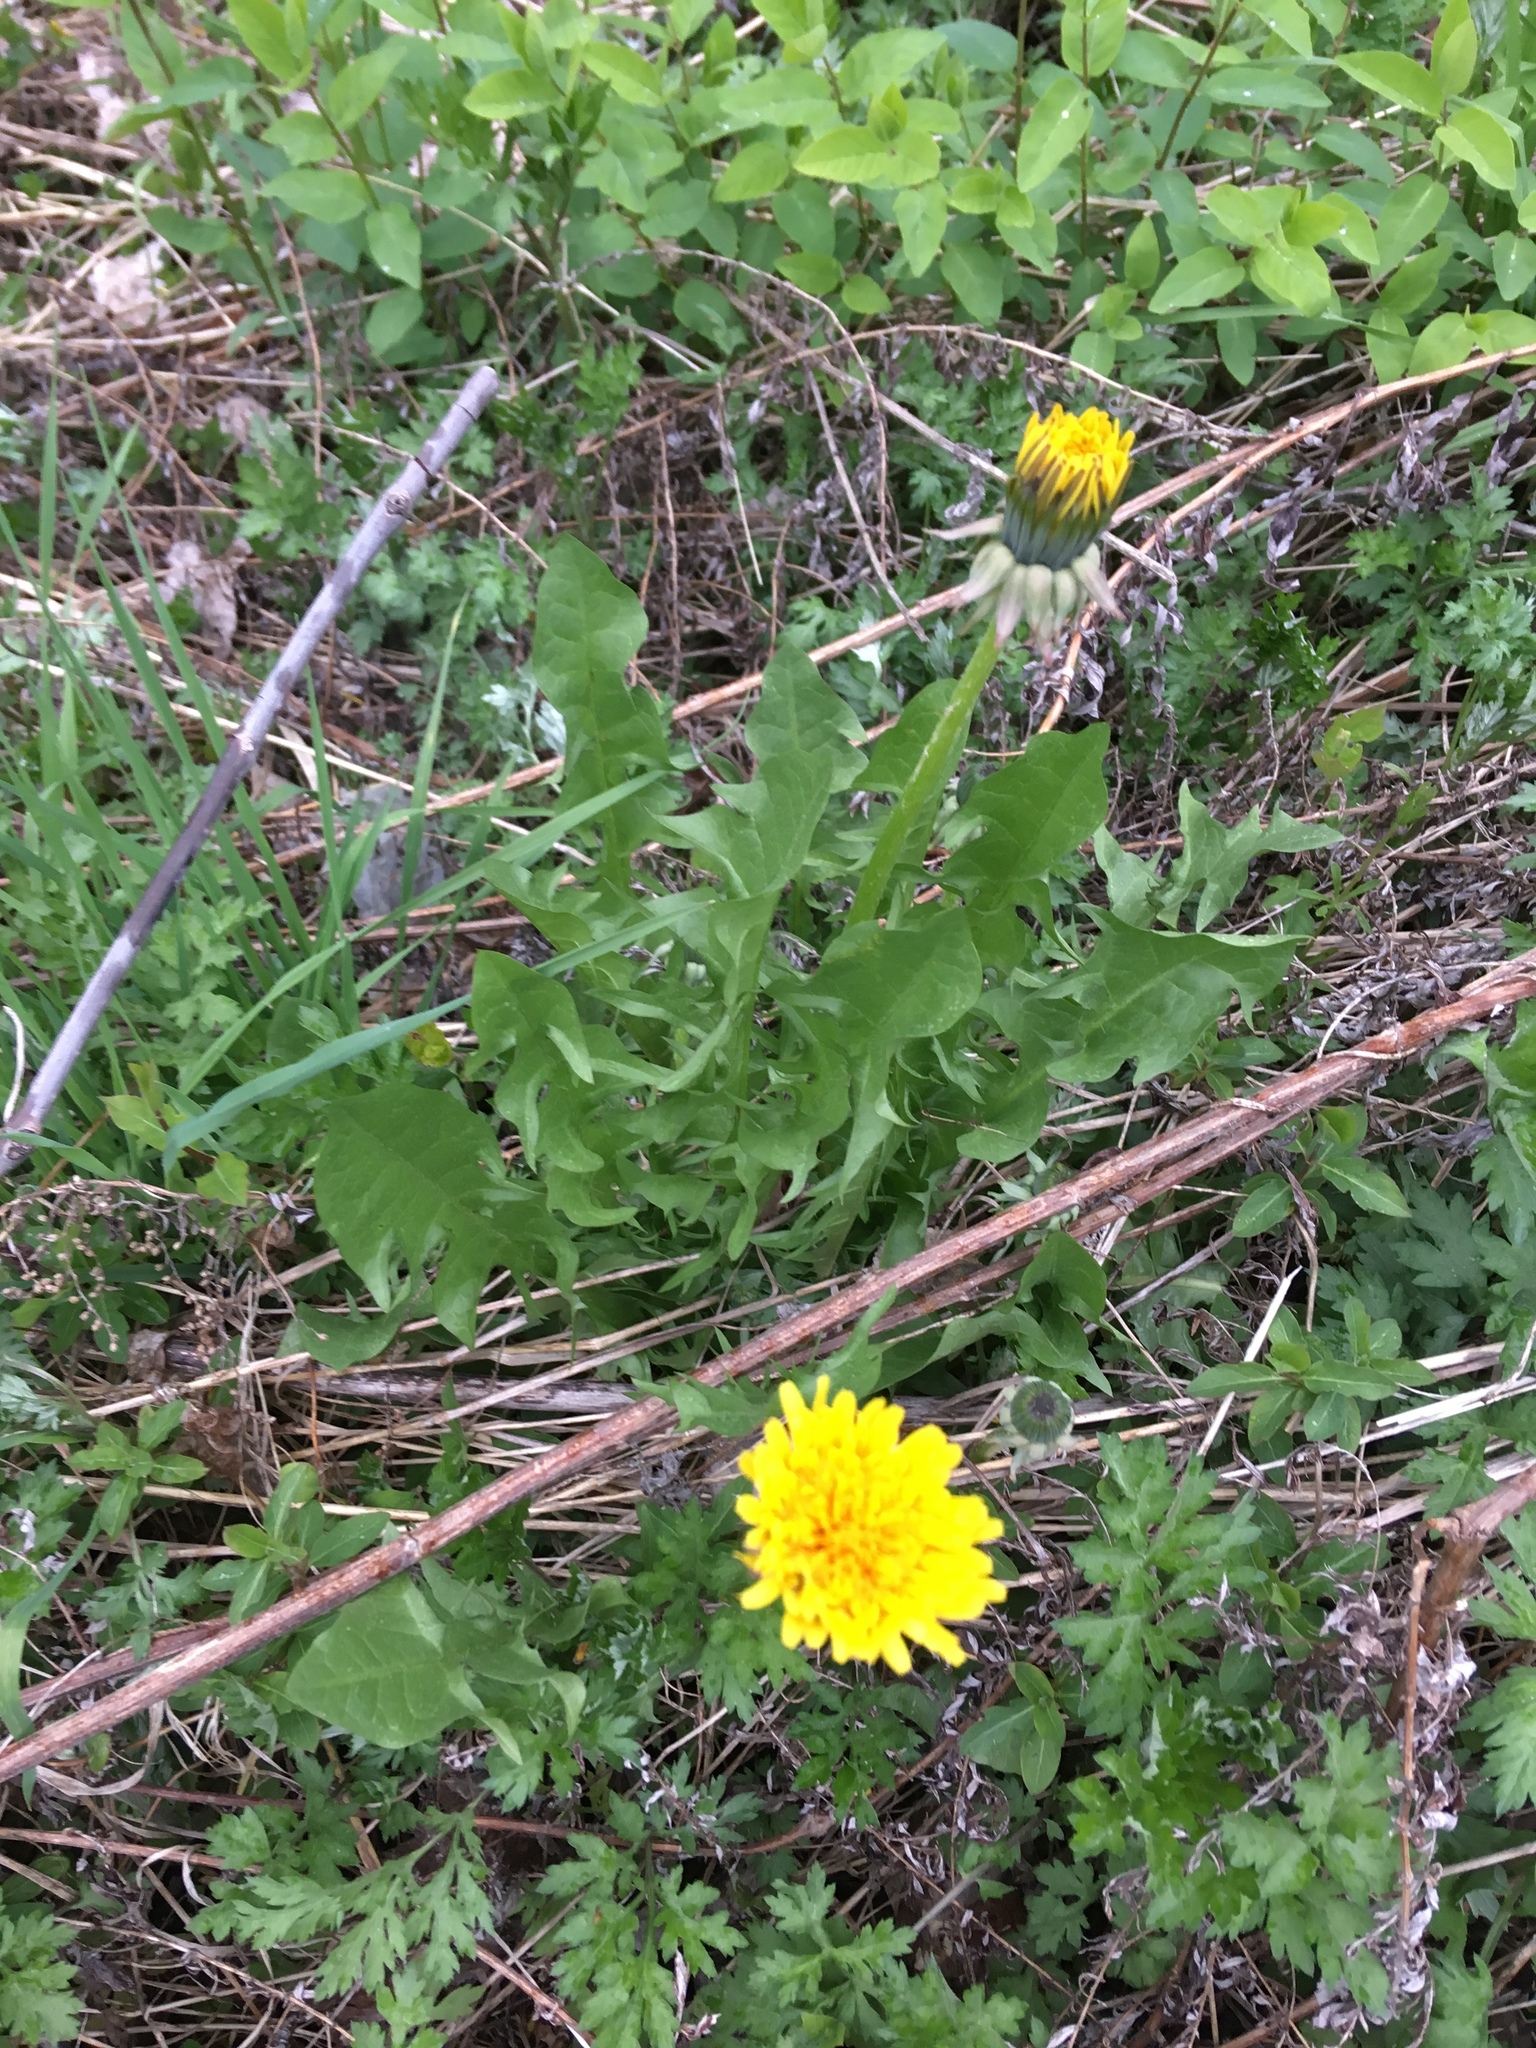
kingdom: Plantae
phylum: Tracheophyta
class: Magnoliopsida
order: Asterales
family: Asteraceae
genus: Taraxacum
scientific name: Taraxacum officinale
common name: Common dandelion
